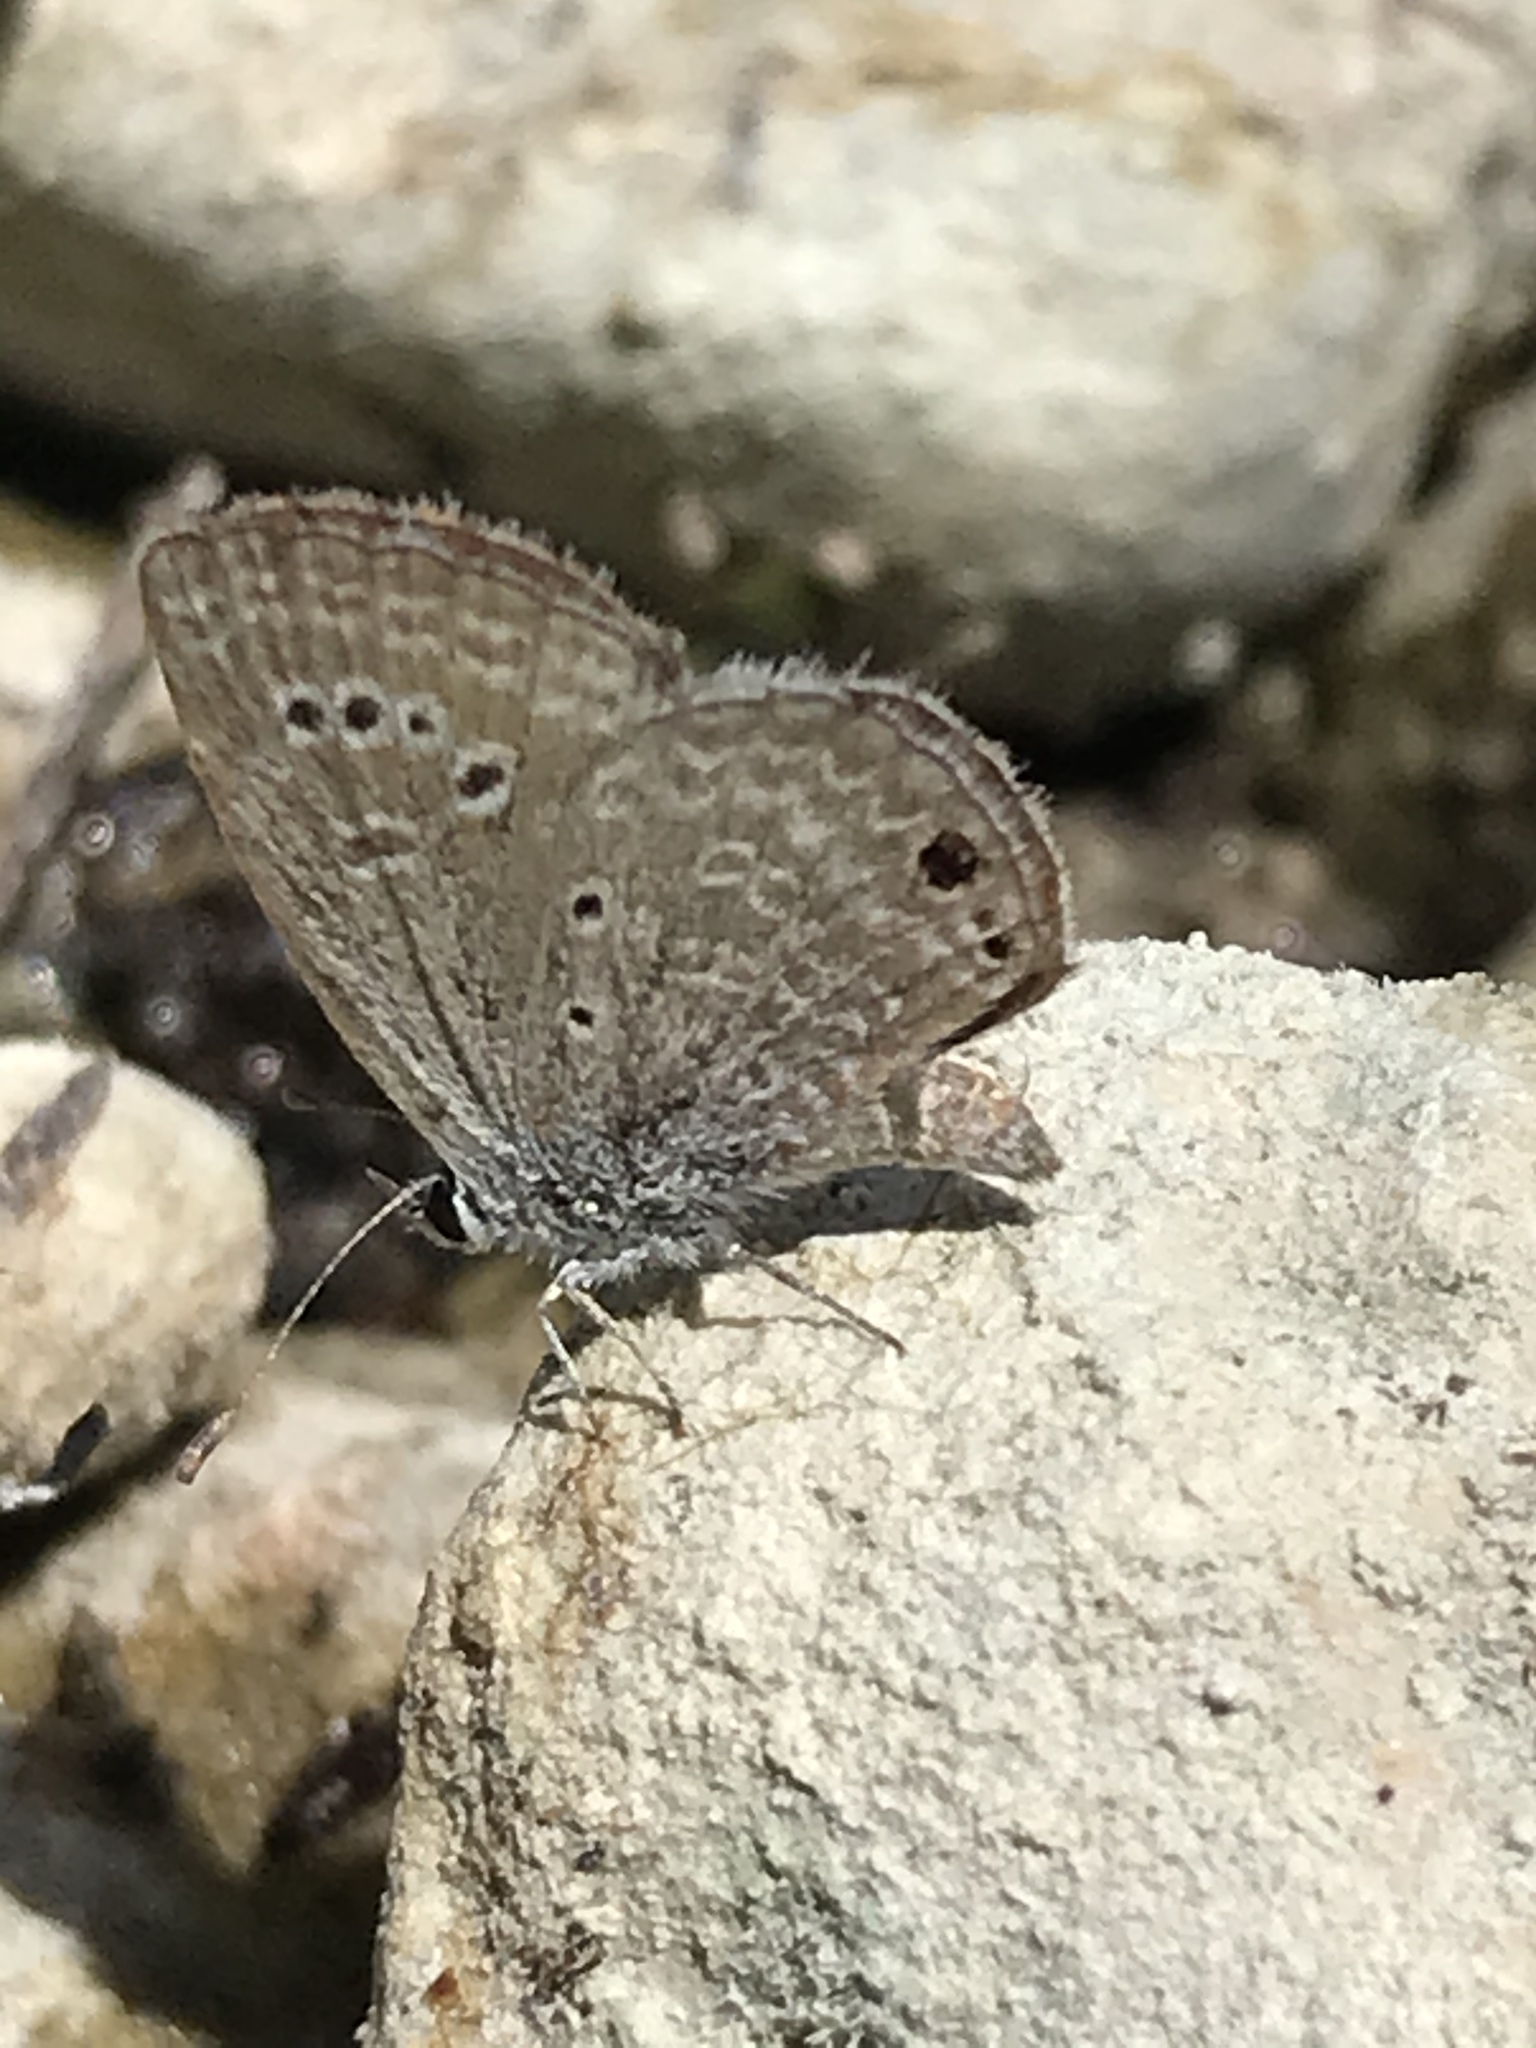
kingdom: Animalia
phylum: Arthropoda
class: Insecta
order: Lepidoptera
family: Lycaenidae
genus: Echinargus
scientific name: Echinargus isola
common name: Reakirt's blue
